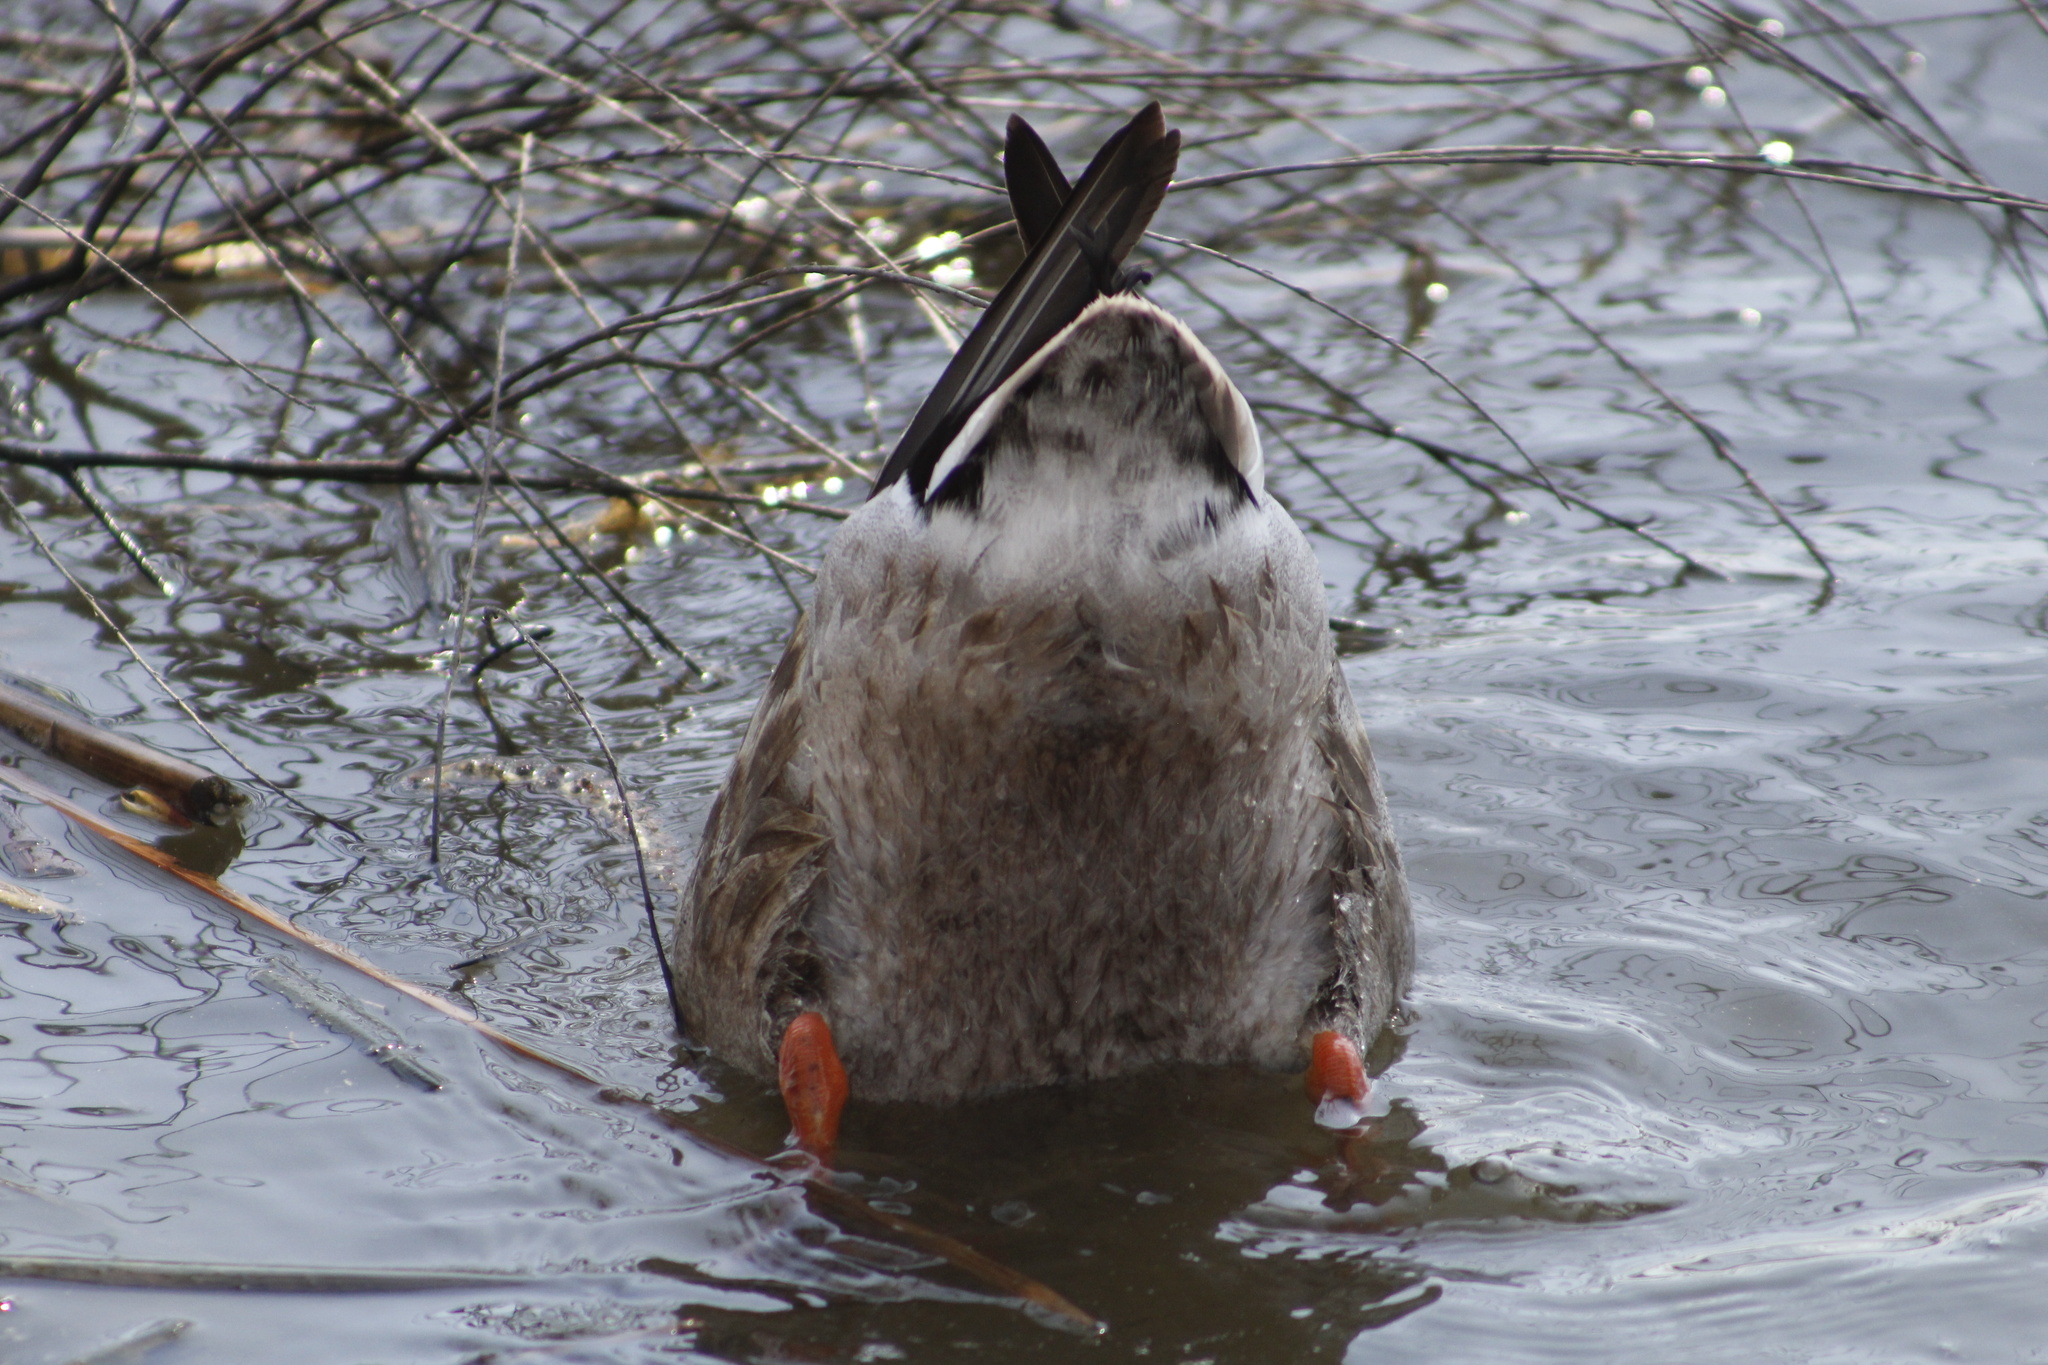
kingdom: Animalia
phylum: Chordata
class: Aves
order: Anseriformes
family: Anatidae
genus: Anas
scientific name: Anas platyrhynchos
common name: Mallard
